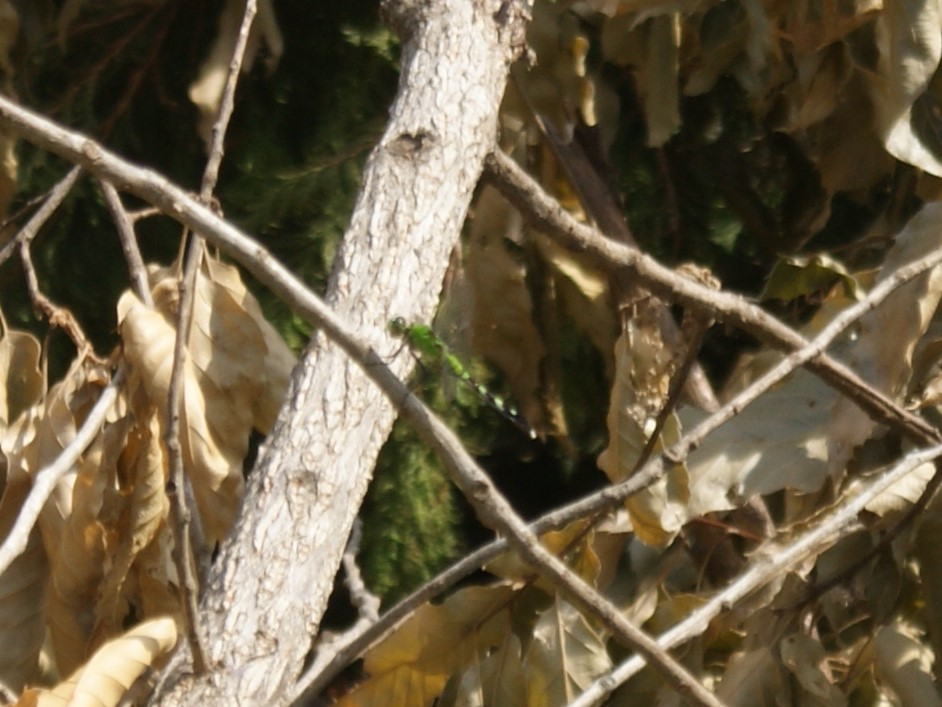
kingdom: Animalia
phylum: Arthropoda
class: Insecta
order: Odonata
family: Libellulidae
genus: Erythemis
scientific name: Erythemis simplicicollis
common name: Eastern pondhawk
